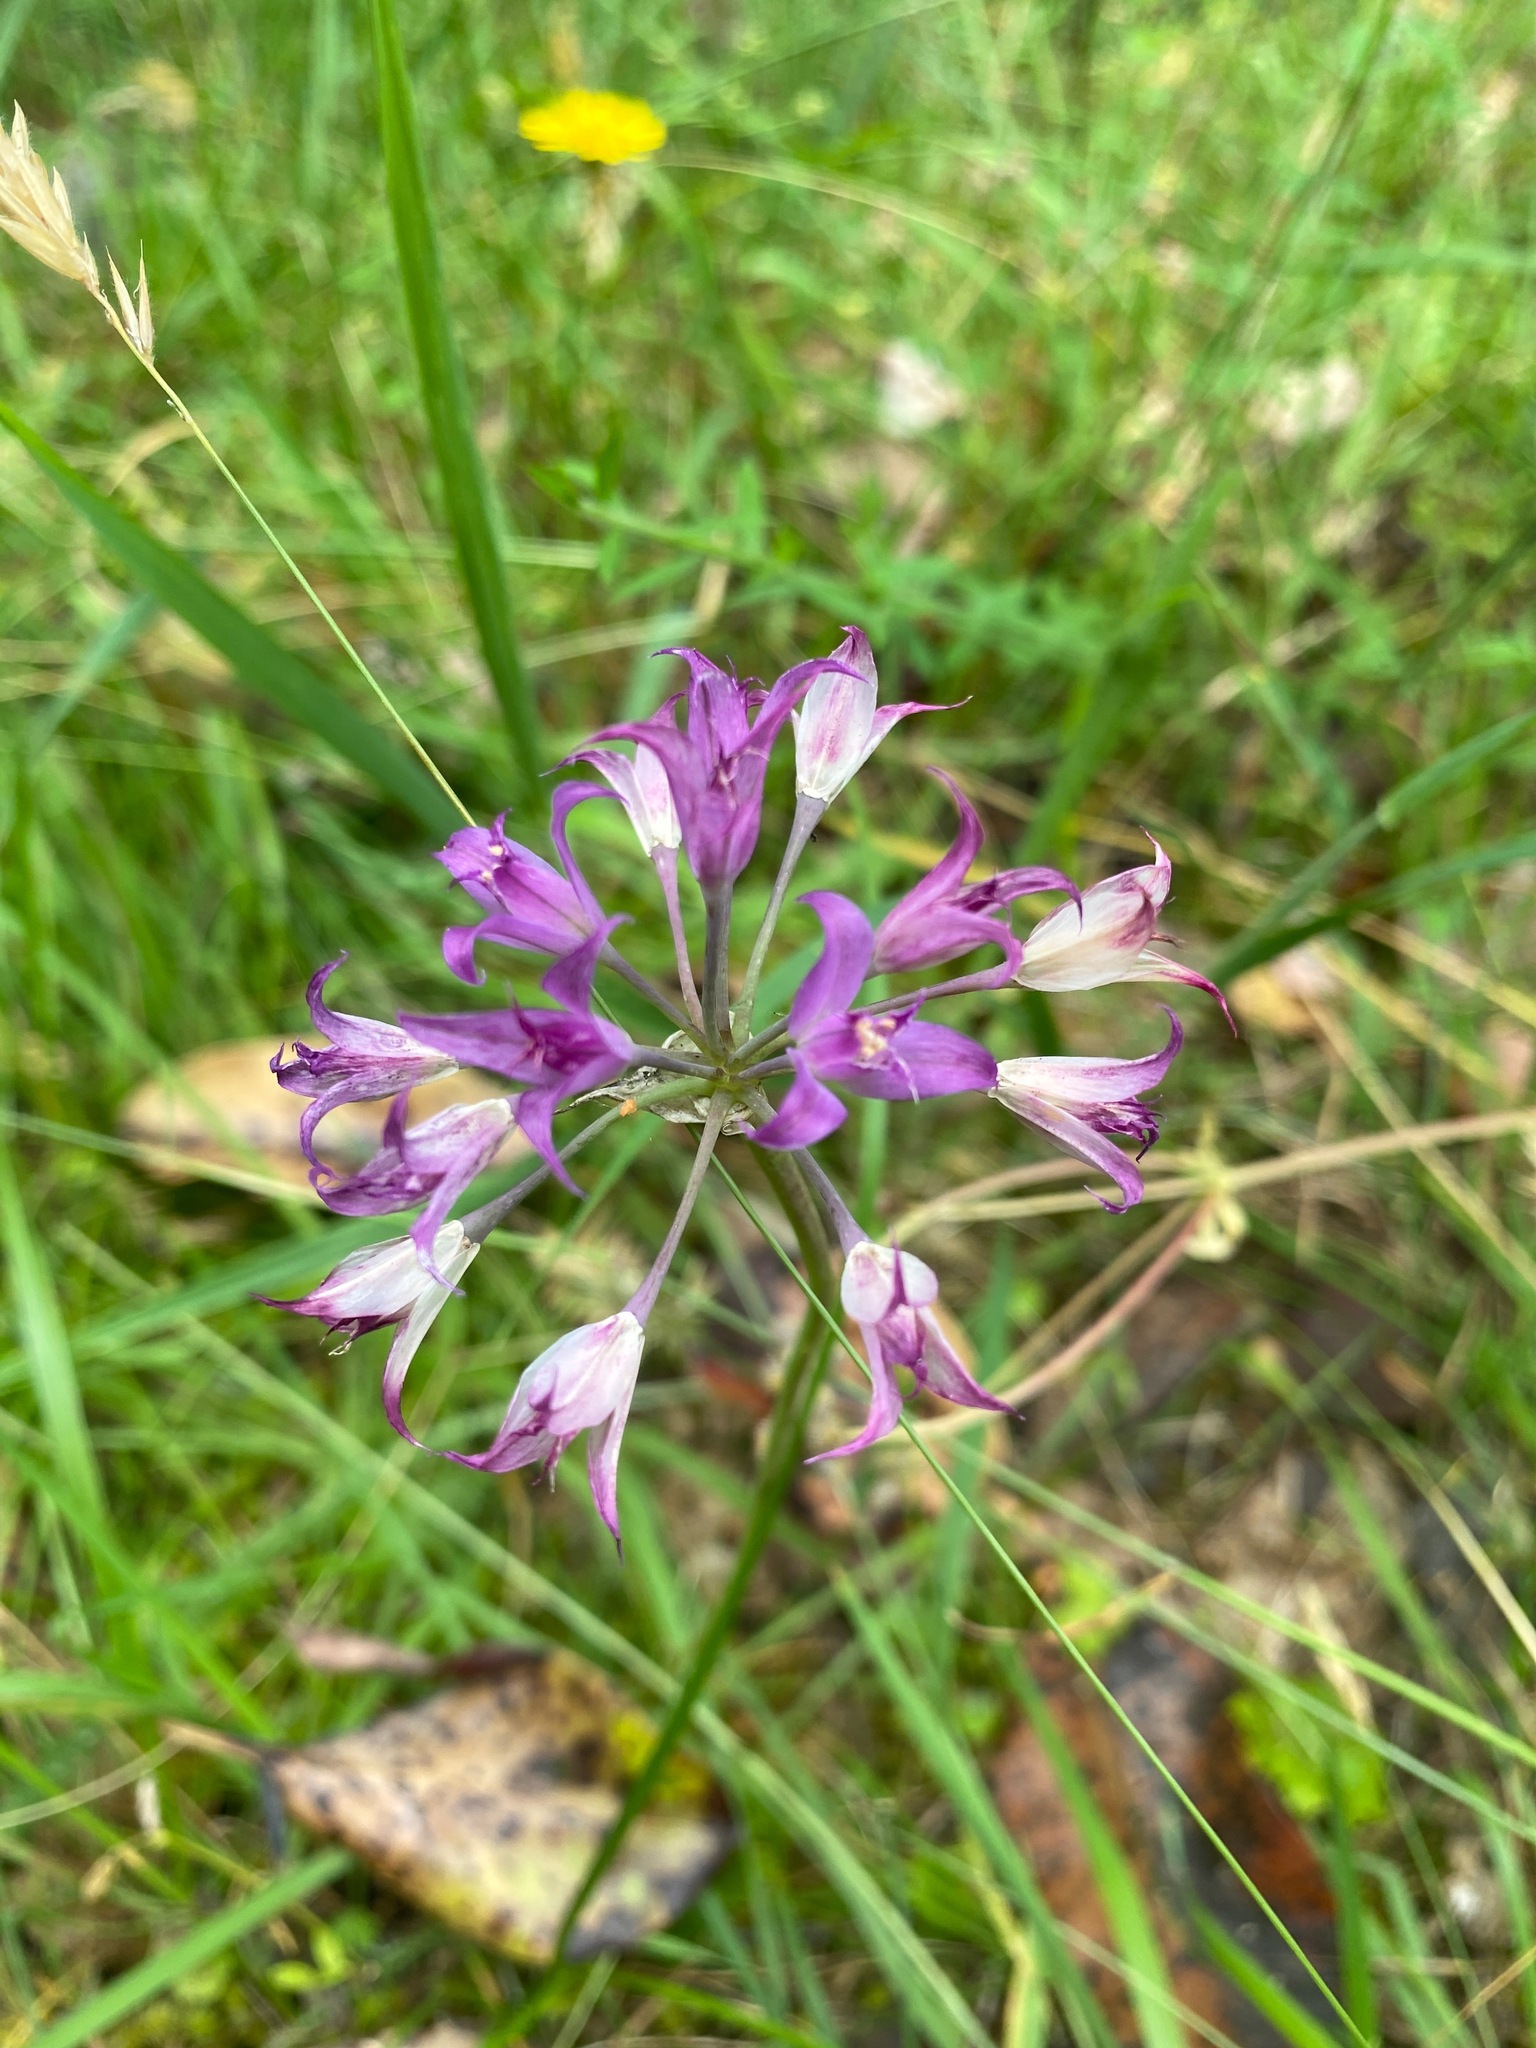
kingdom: Plantae
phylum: Tracheophyta
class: Liliopsida
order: Asparagales
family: Amaryllidaceae
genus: Allium
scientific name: Allium acuminatum
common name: Hooker's onion
